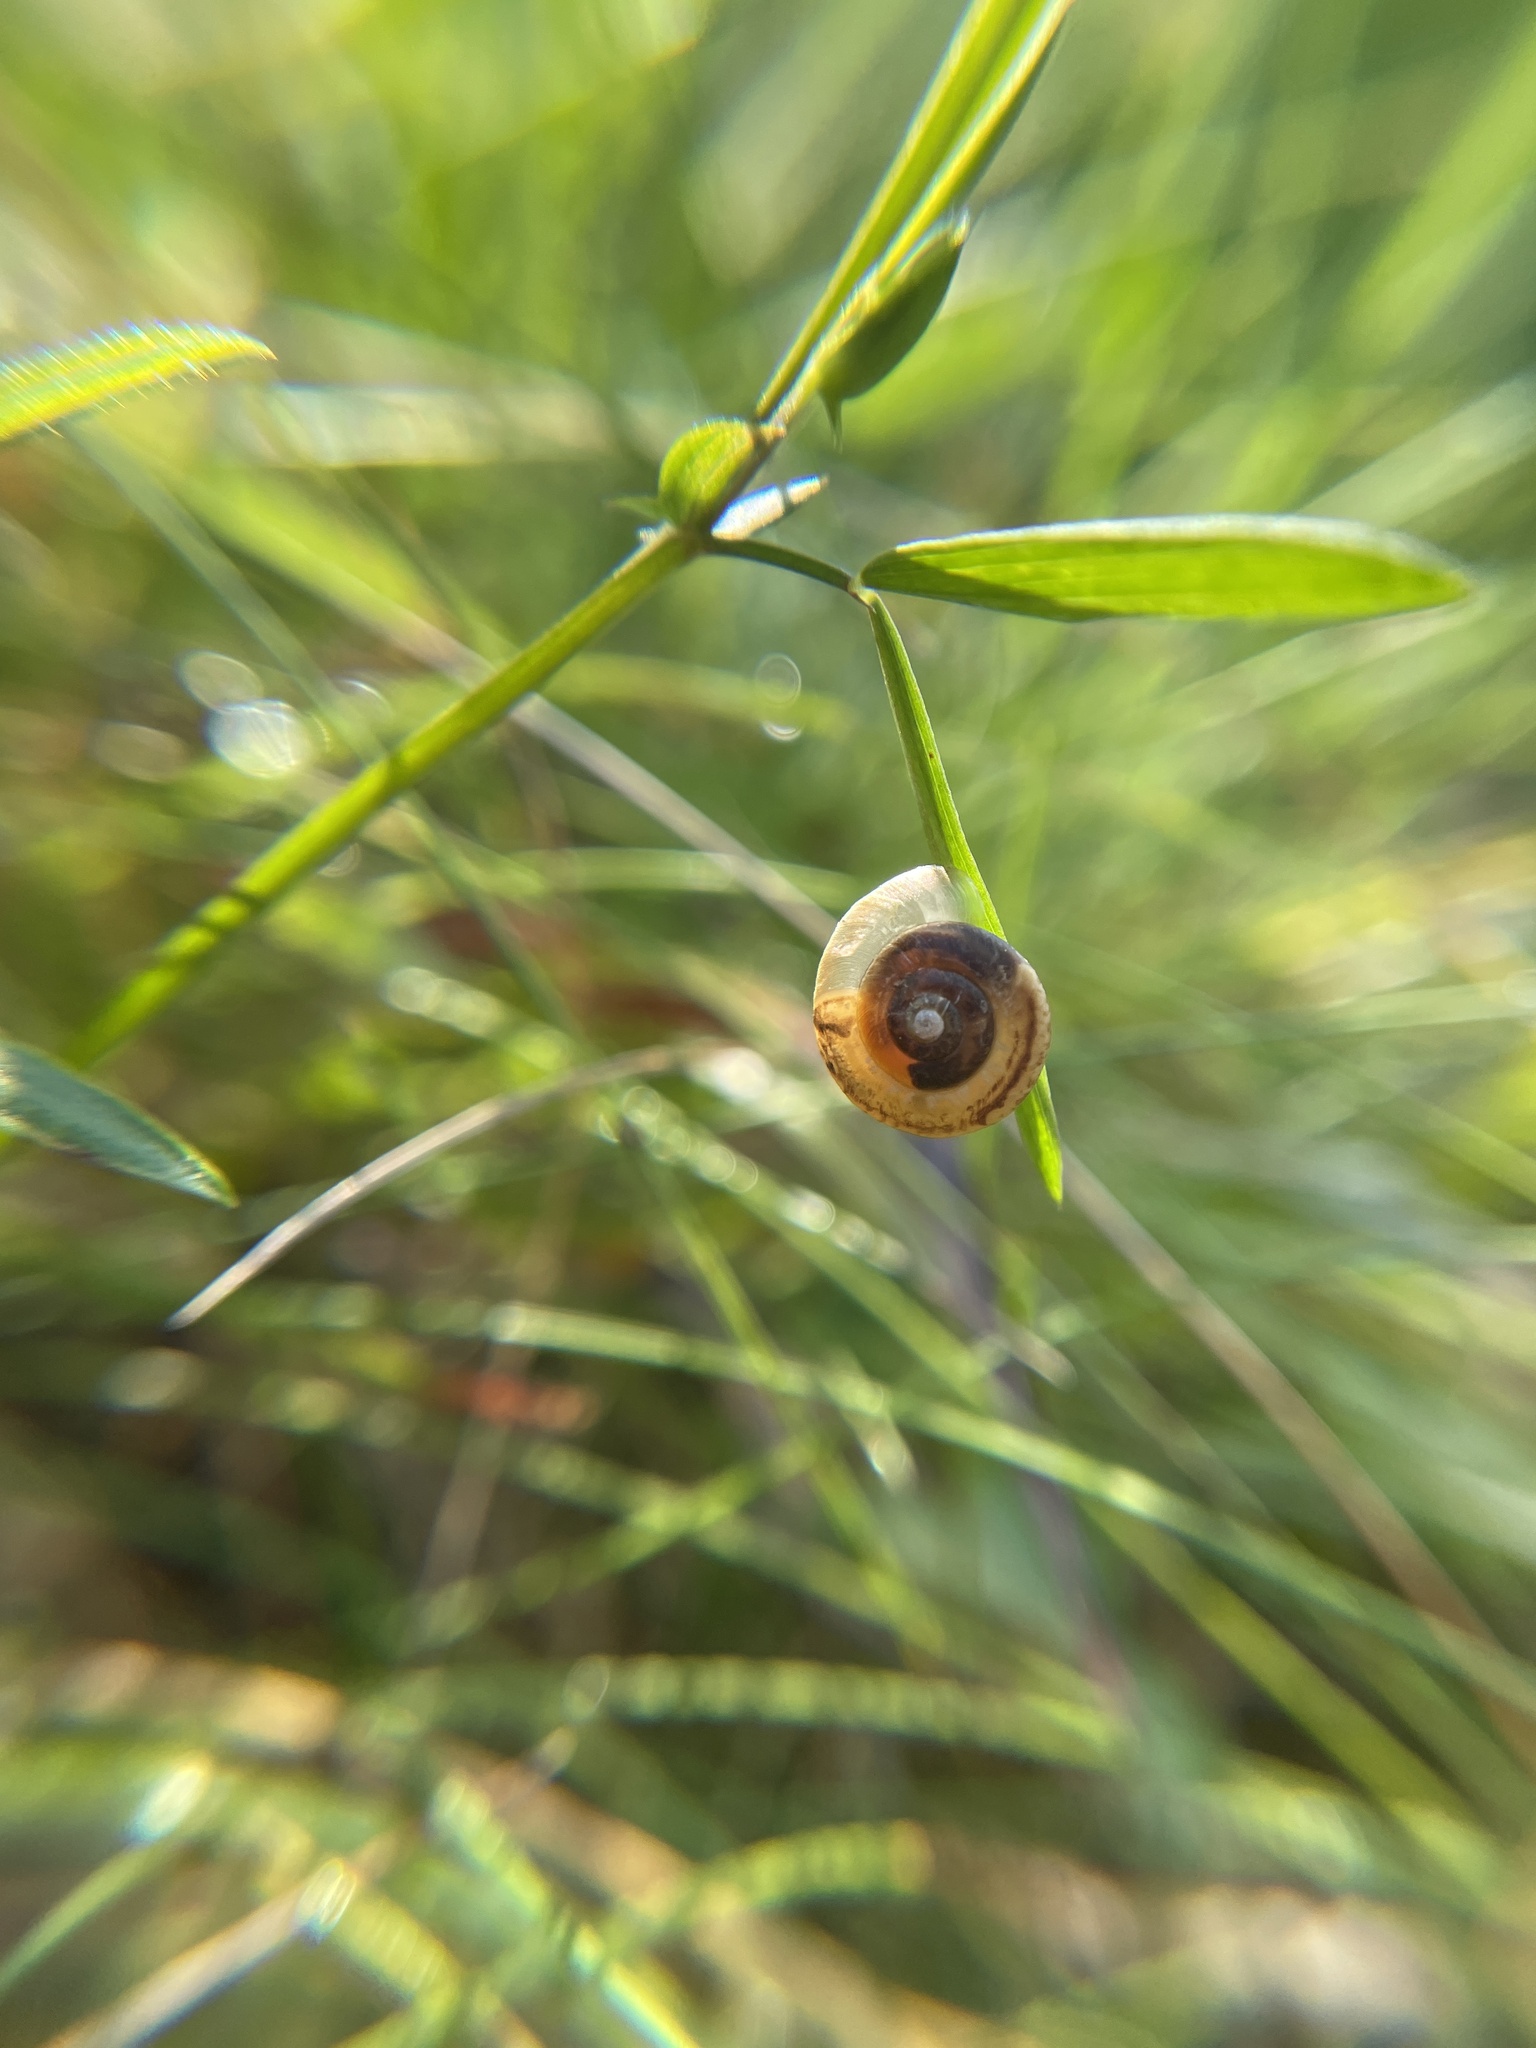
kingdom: Animalia
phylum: Mollusca
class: Gastropoda
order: Stylommatophora
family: Hygromiidae
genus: Urticicola
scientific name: Urticicola umbrosus
